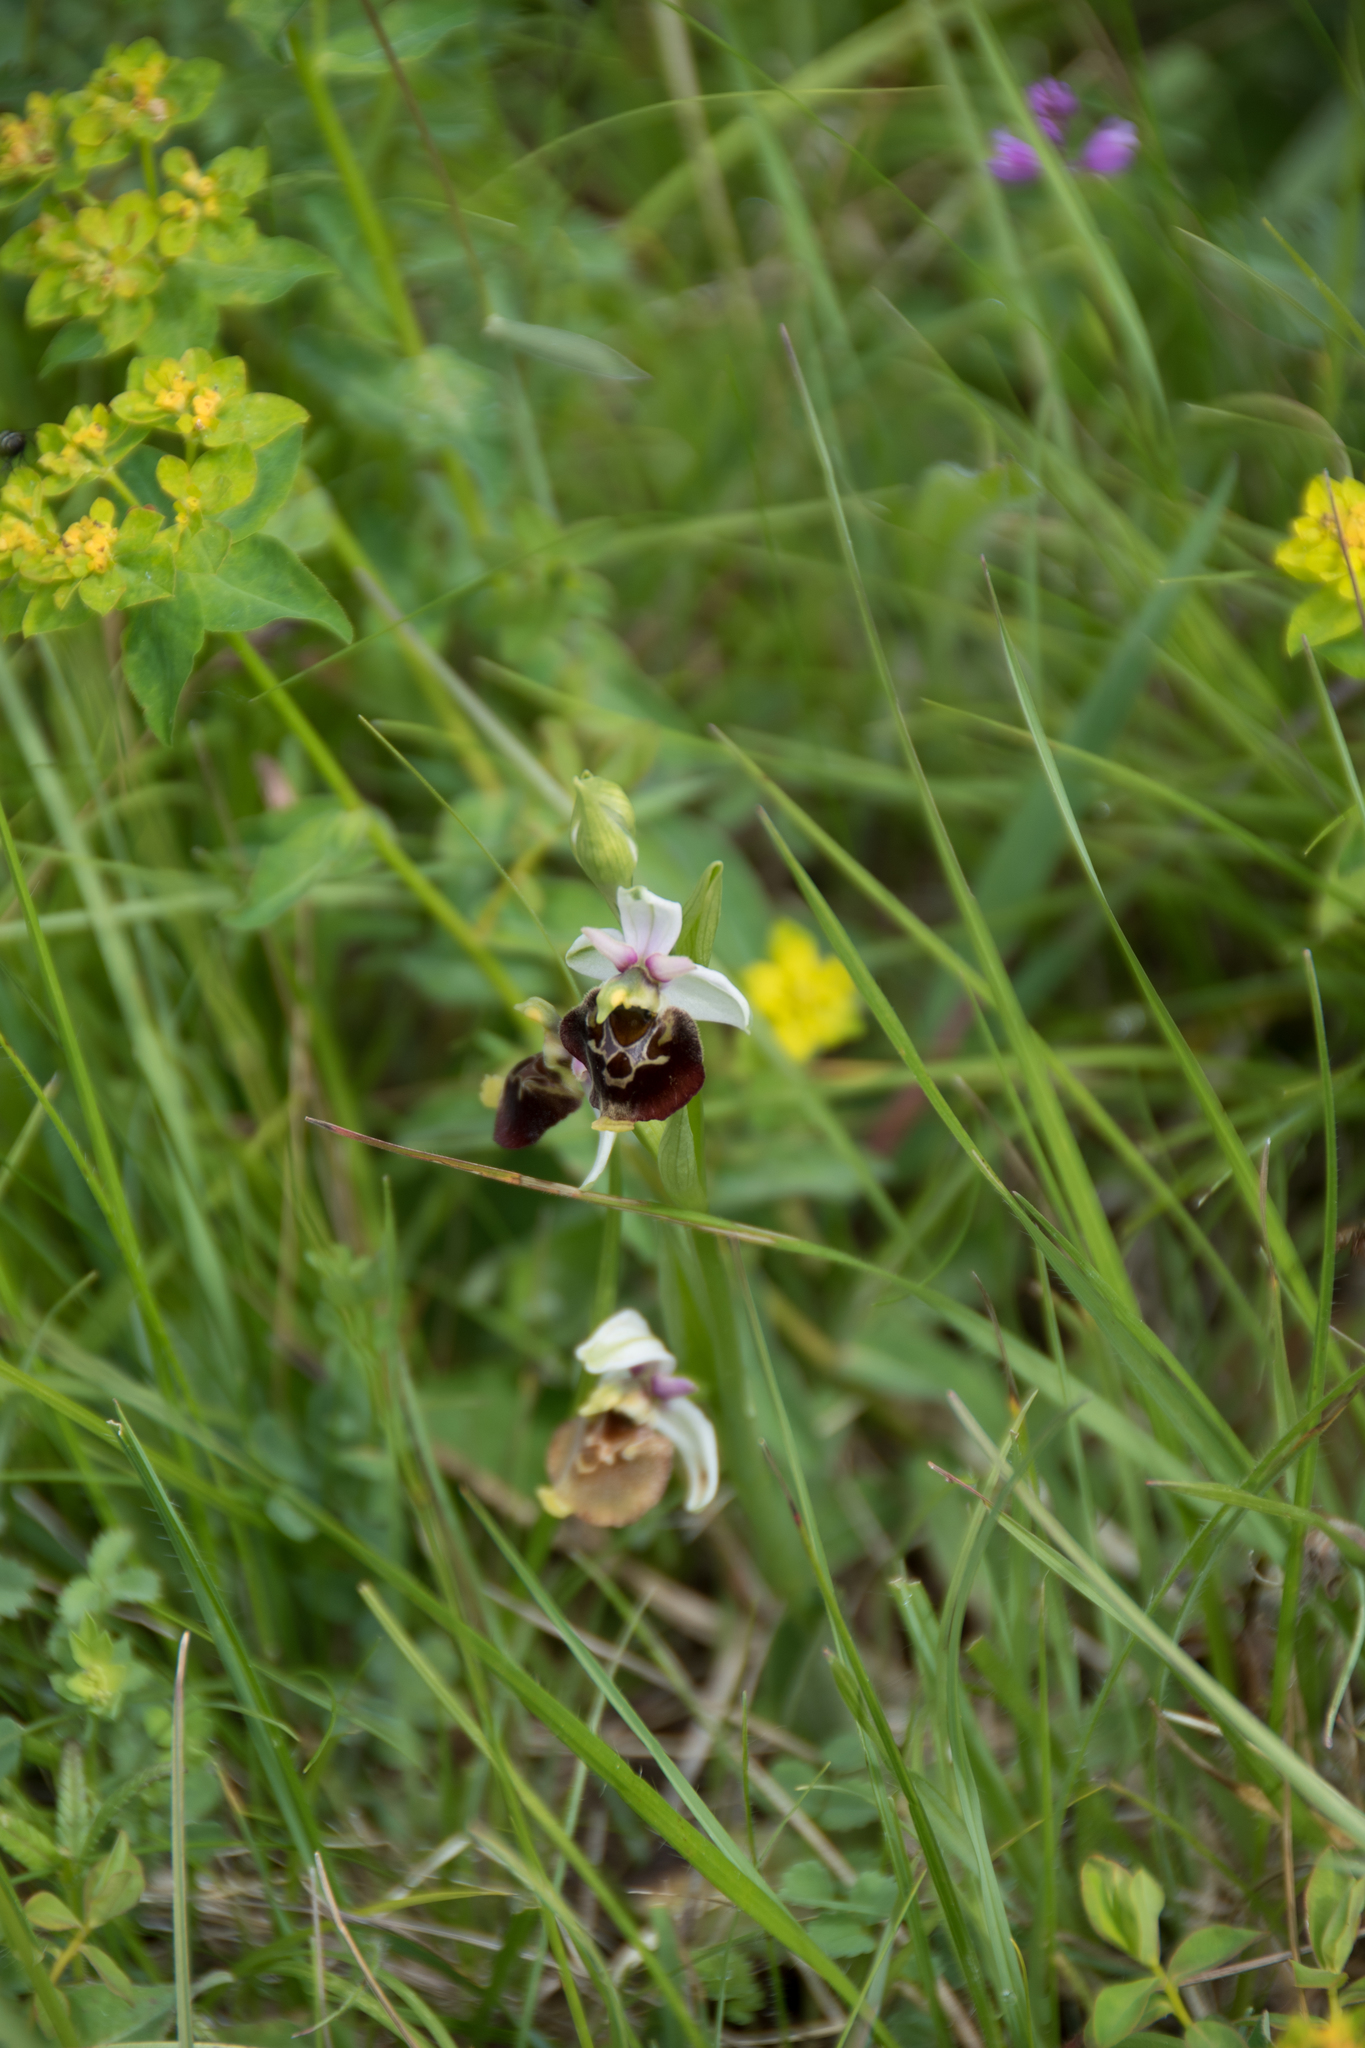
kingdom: Plantae
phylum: Tracheophyta
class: Liliopsida
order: Asparagales
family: Orchidaceae
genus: Ophrys
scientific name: Ophrys holosericea
